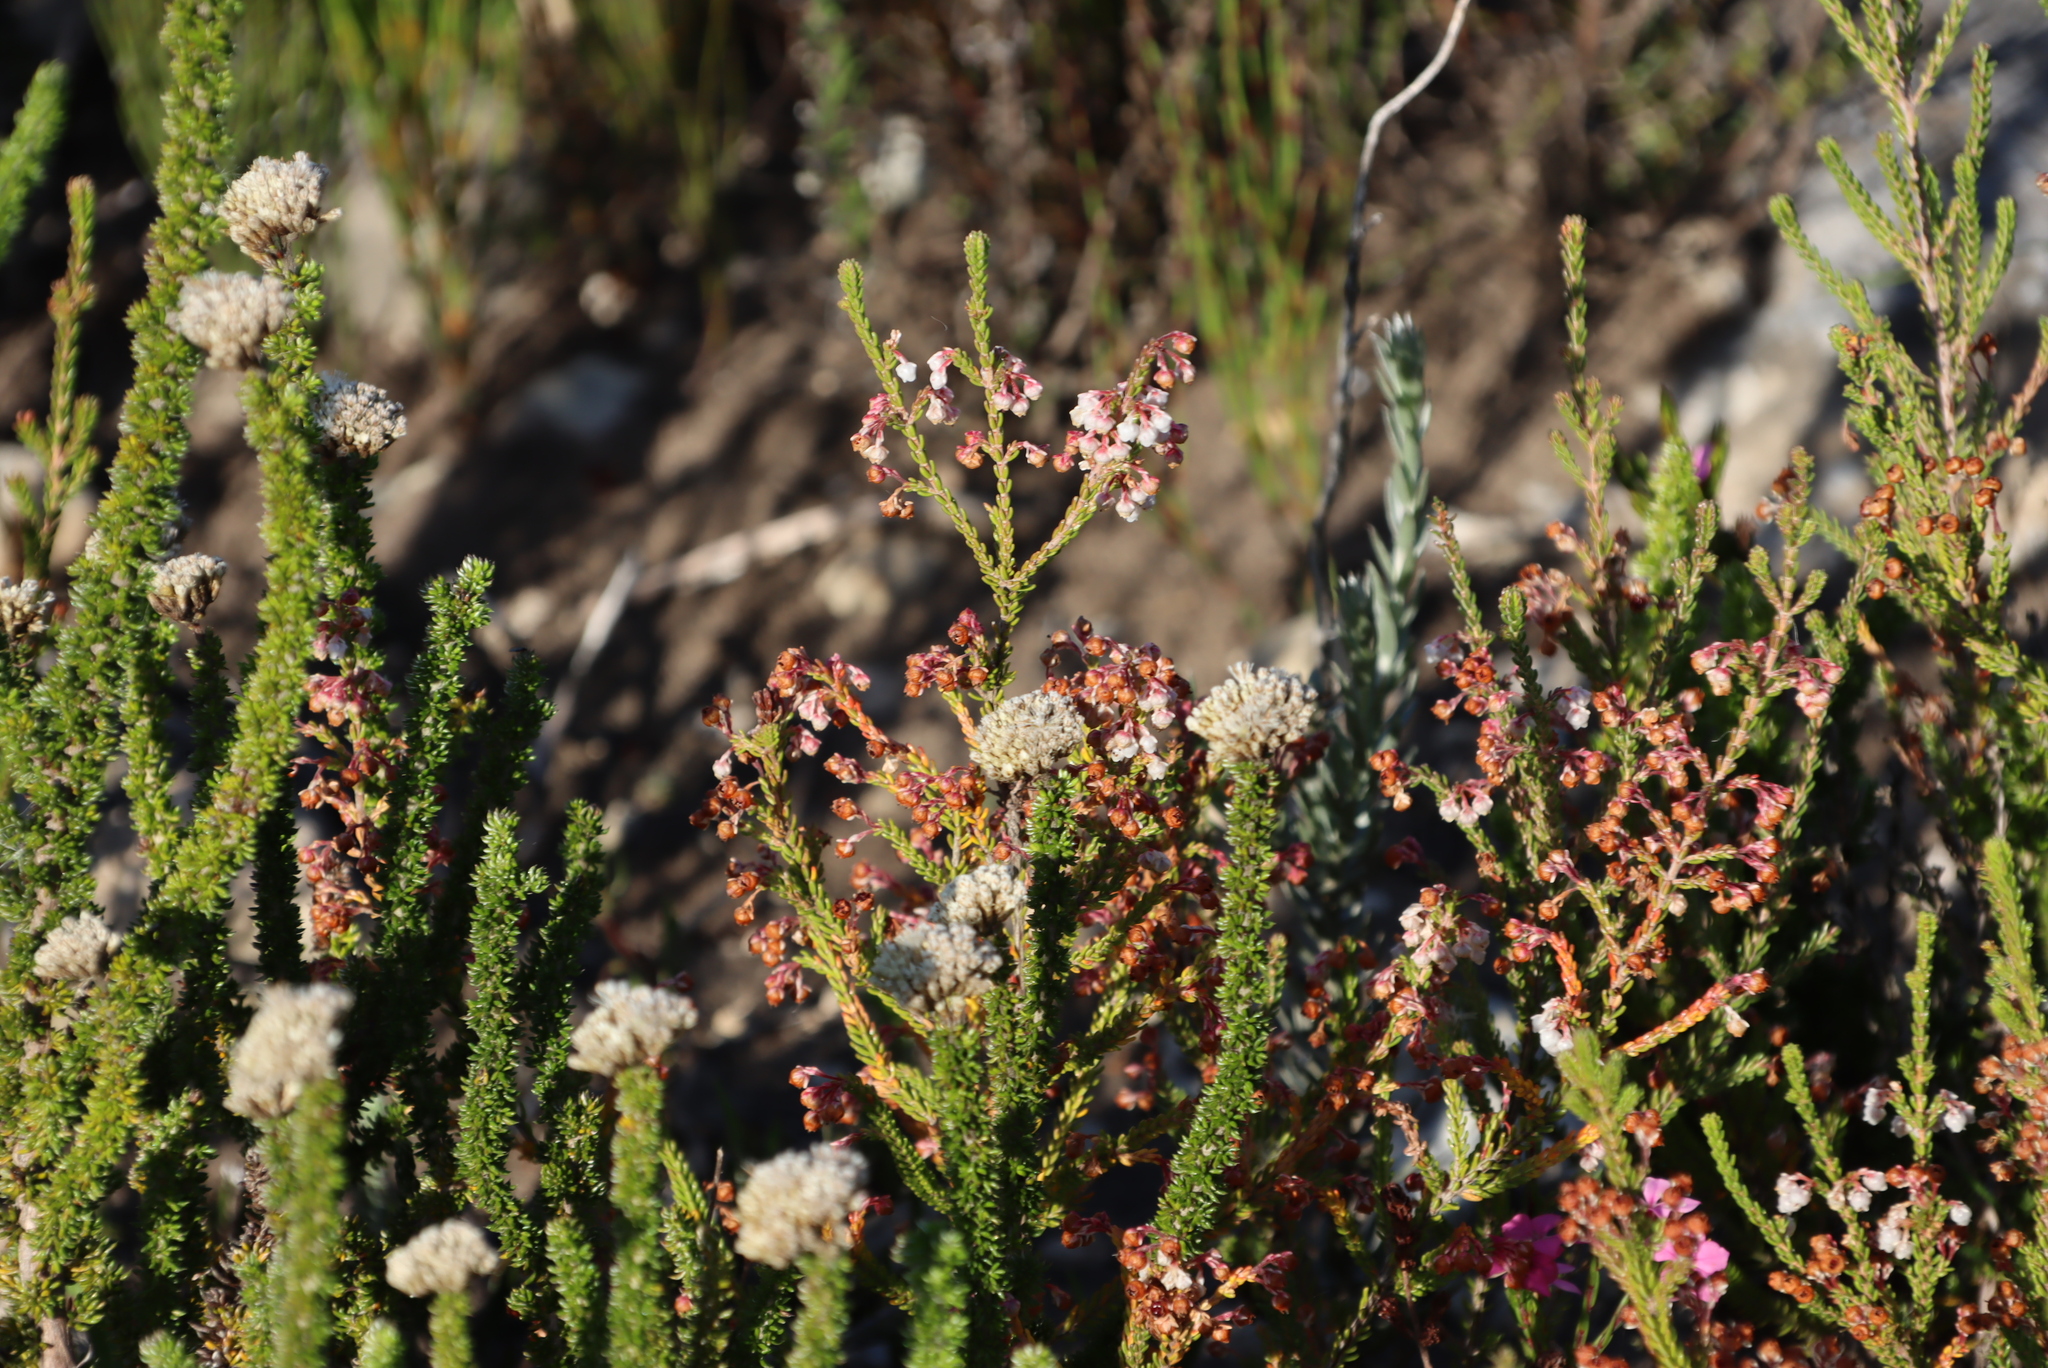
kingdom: Plantae
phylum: Tracheophyta
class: Magnoliopsida
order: Ericales
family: Ericaceae
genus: Erica
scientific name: Erica spectabilis
